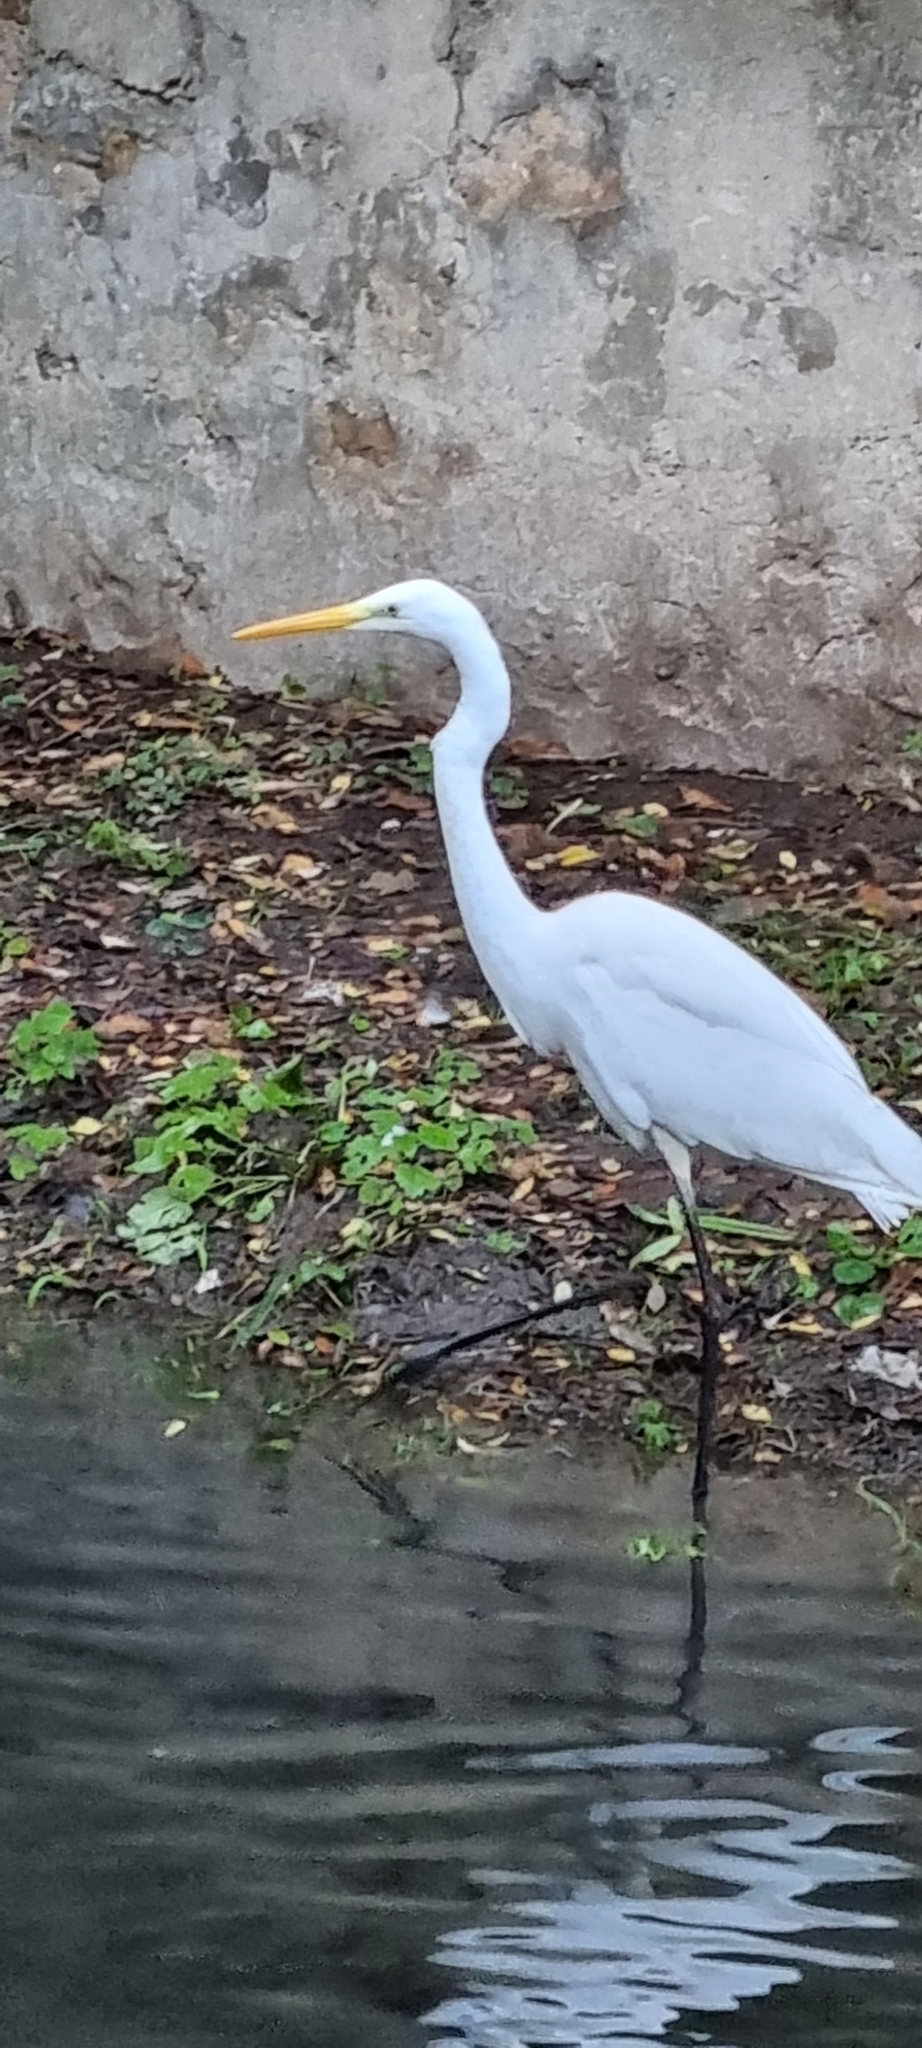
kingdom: Animalia
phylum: Chordata
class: Aves
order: Pelecaniformes
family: Ardeidae
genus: Ardea
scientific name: Ardea alba
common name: Great egret
